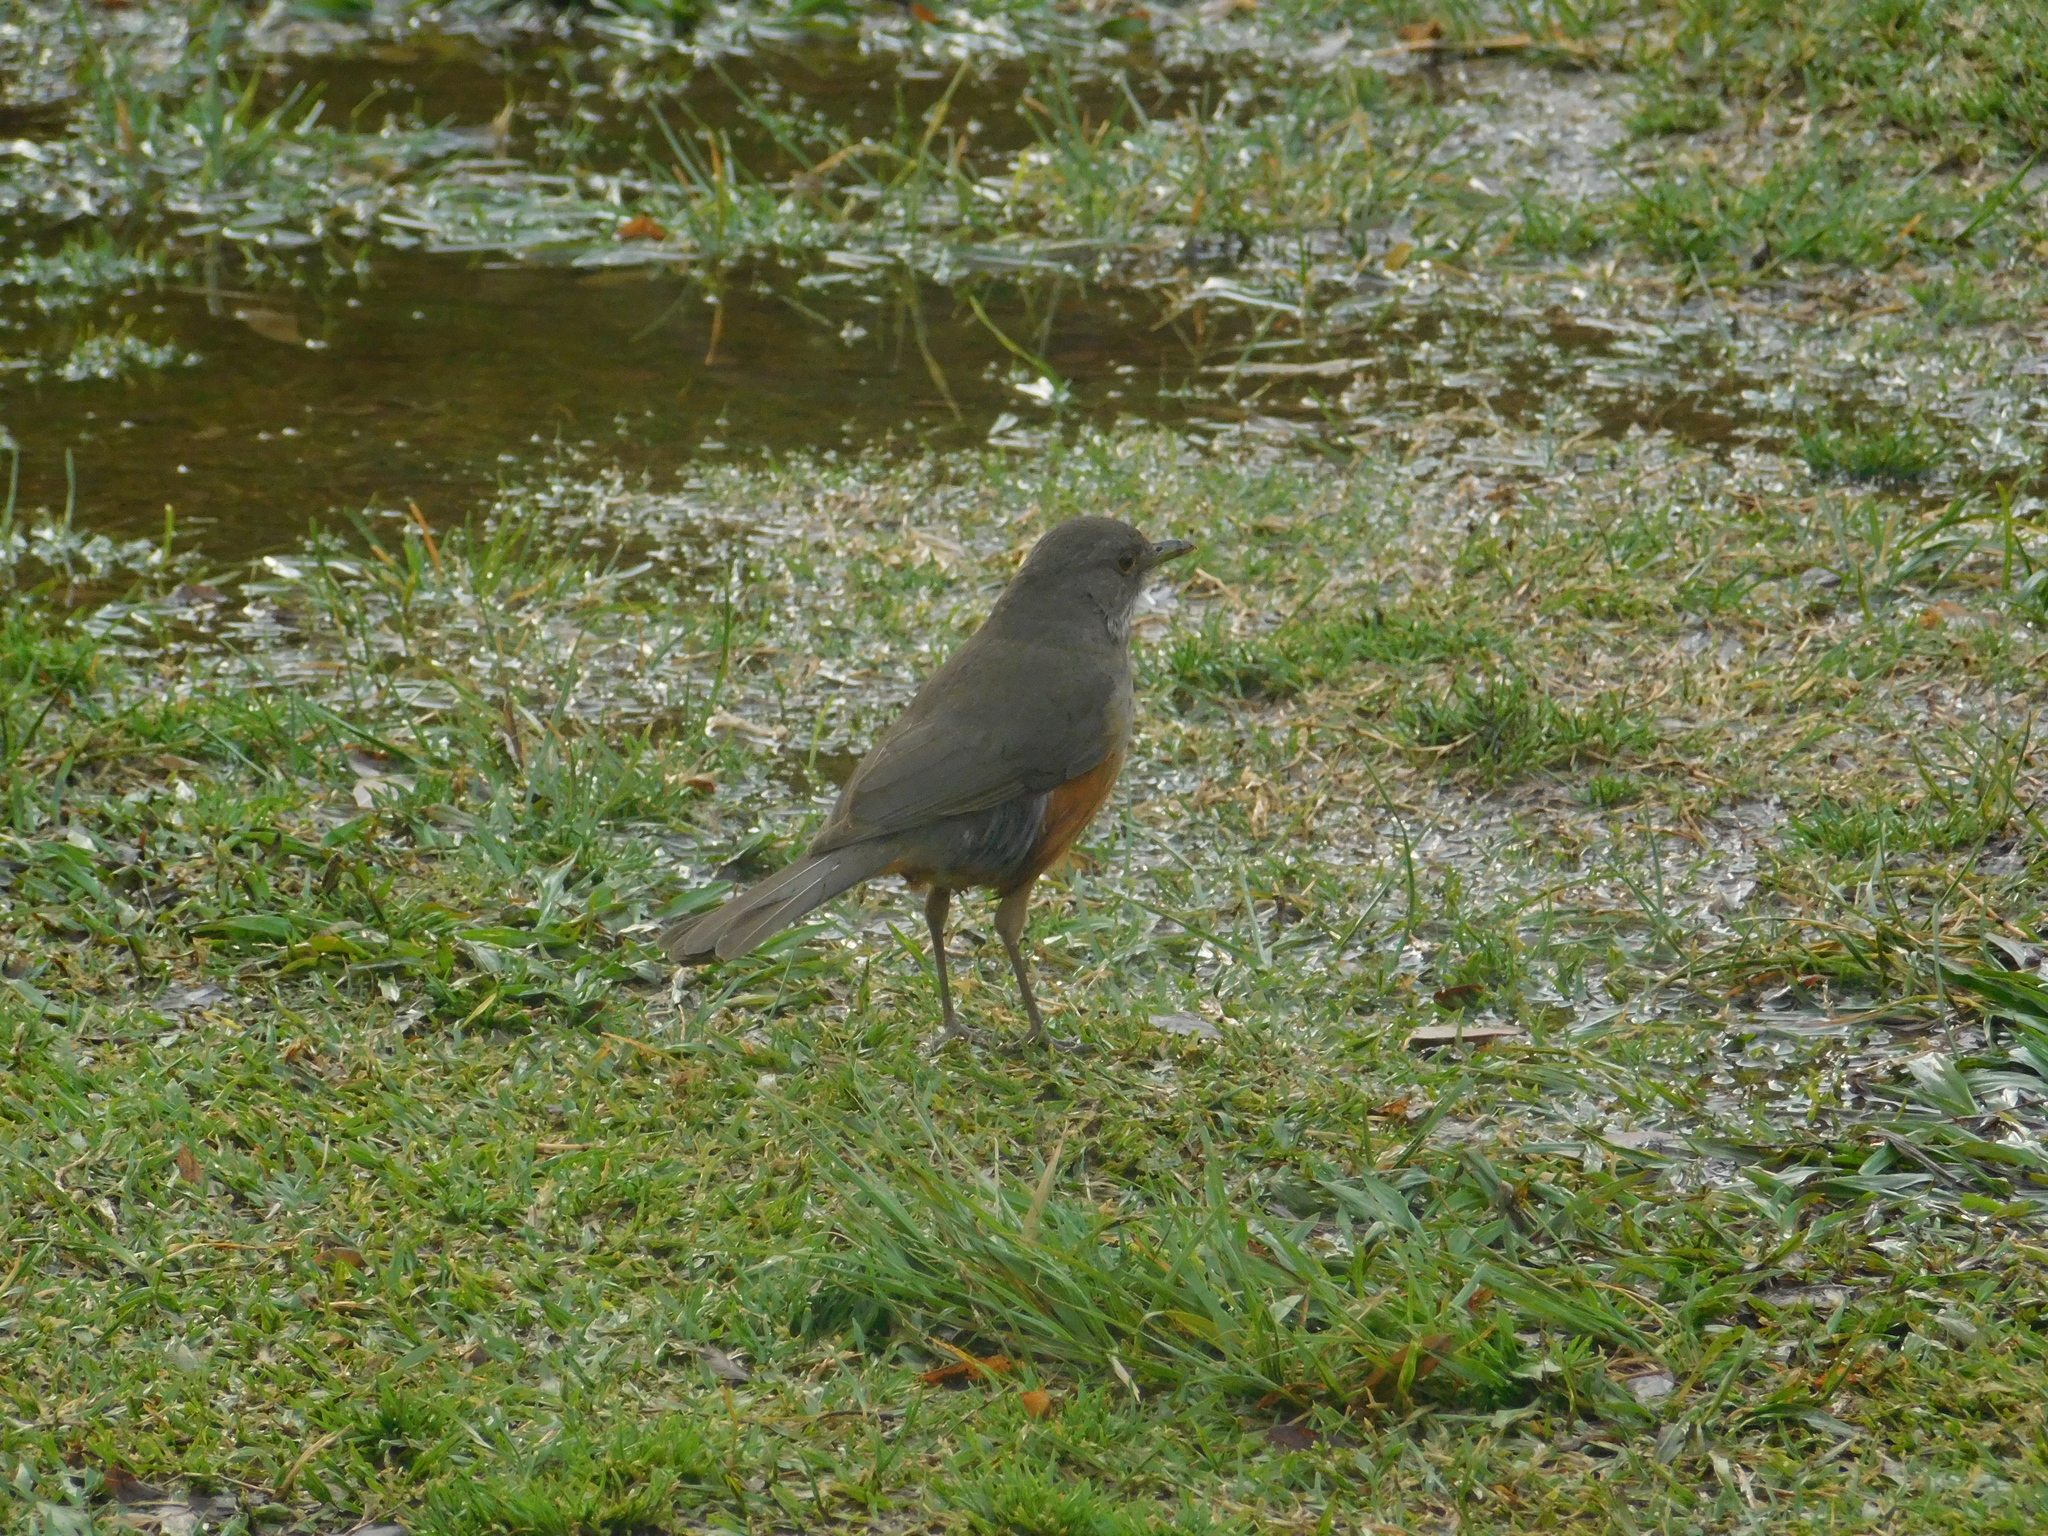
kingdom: Animalia
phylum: Chordata
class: Aves
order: Passeriformes
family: Turdidae
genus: Turdus
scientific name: Turdus rufiventris
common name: Rufous-bellied thrush
